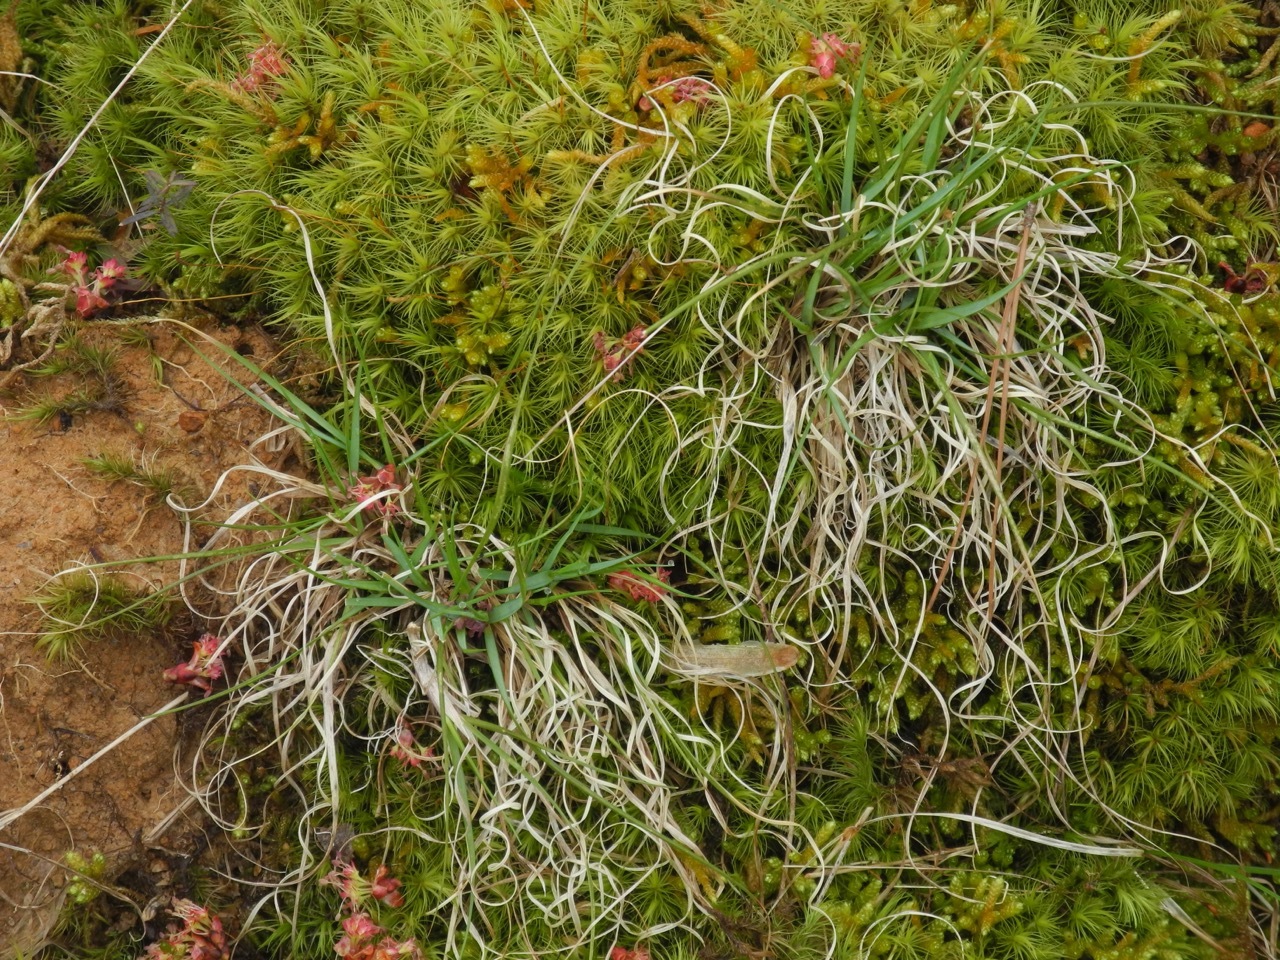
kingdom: Plantae
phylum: Tracheophyta
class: Liliopsida
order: Poales
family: Poaceae
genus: Danthonia
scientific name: Danthonia spicata
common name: Common wild oatgrass
